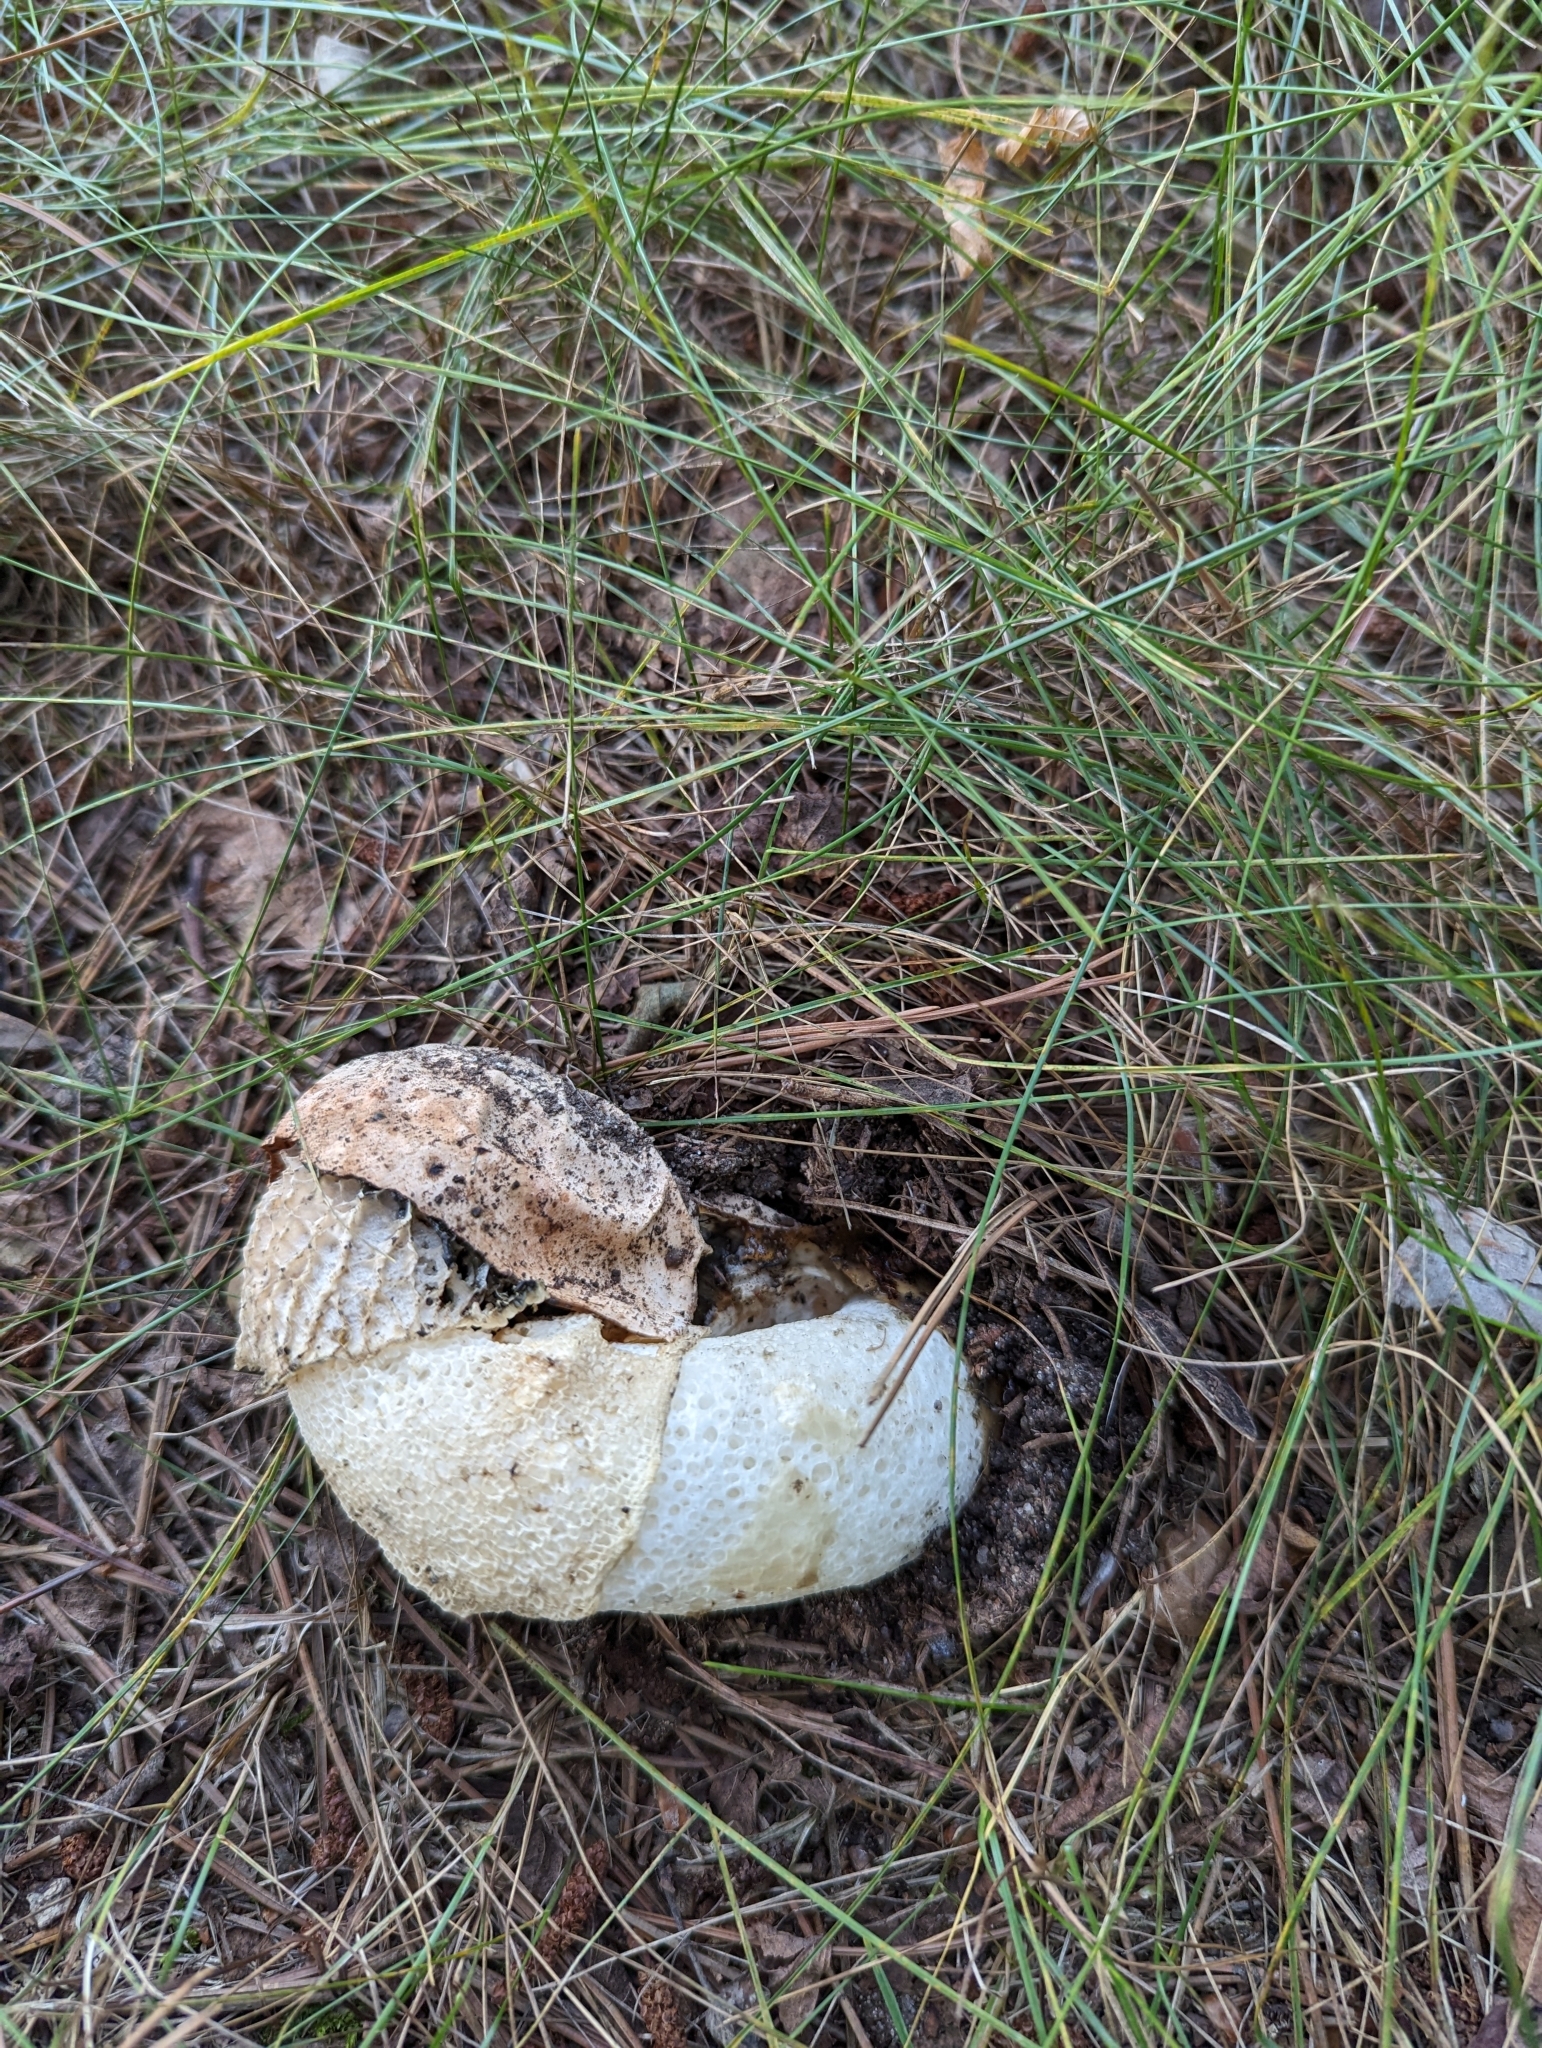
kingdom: Fungi
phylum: Basidiomycota
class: Agaricomycetes
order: Phallales
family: Phallaceae
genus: Phallus
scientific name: Phallus indusiatus
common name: Bridal veil stinkhorn
